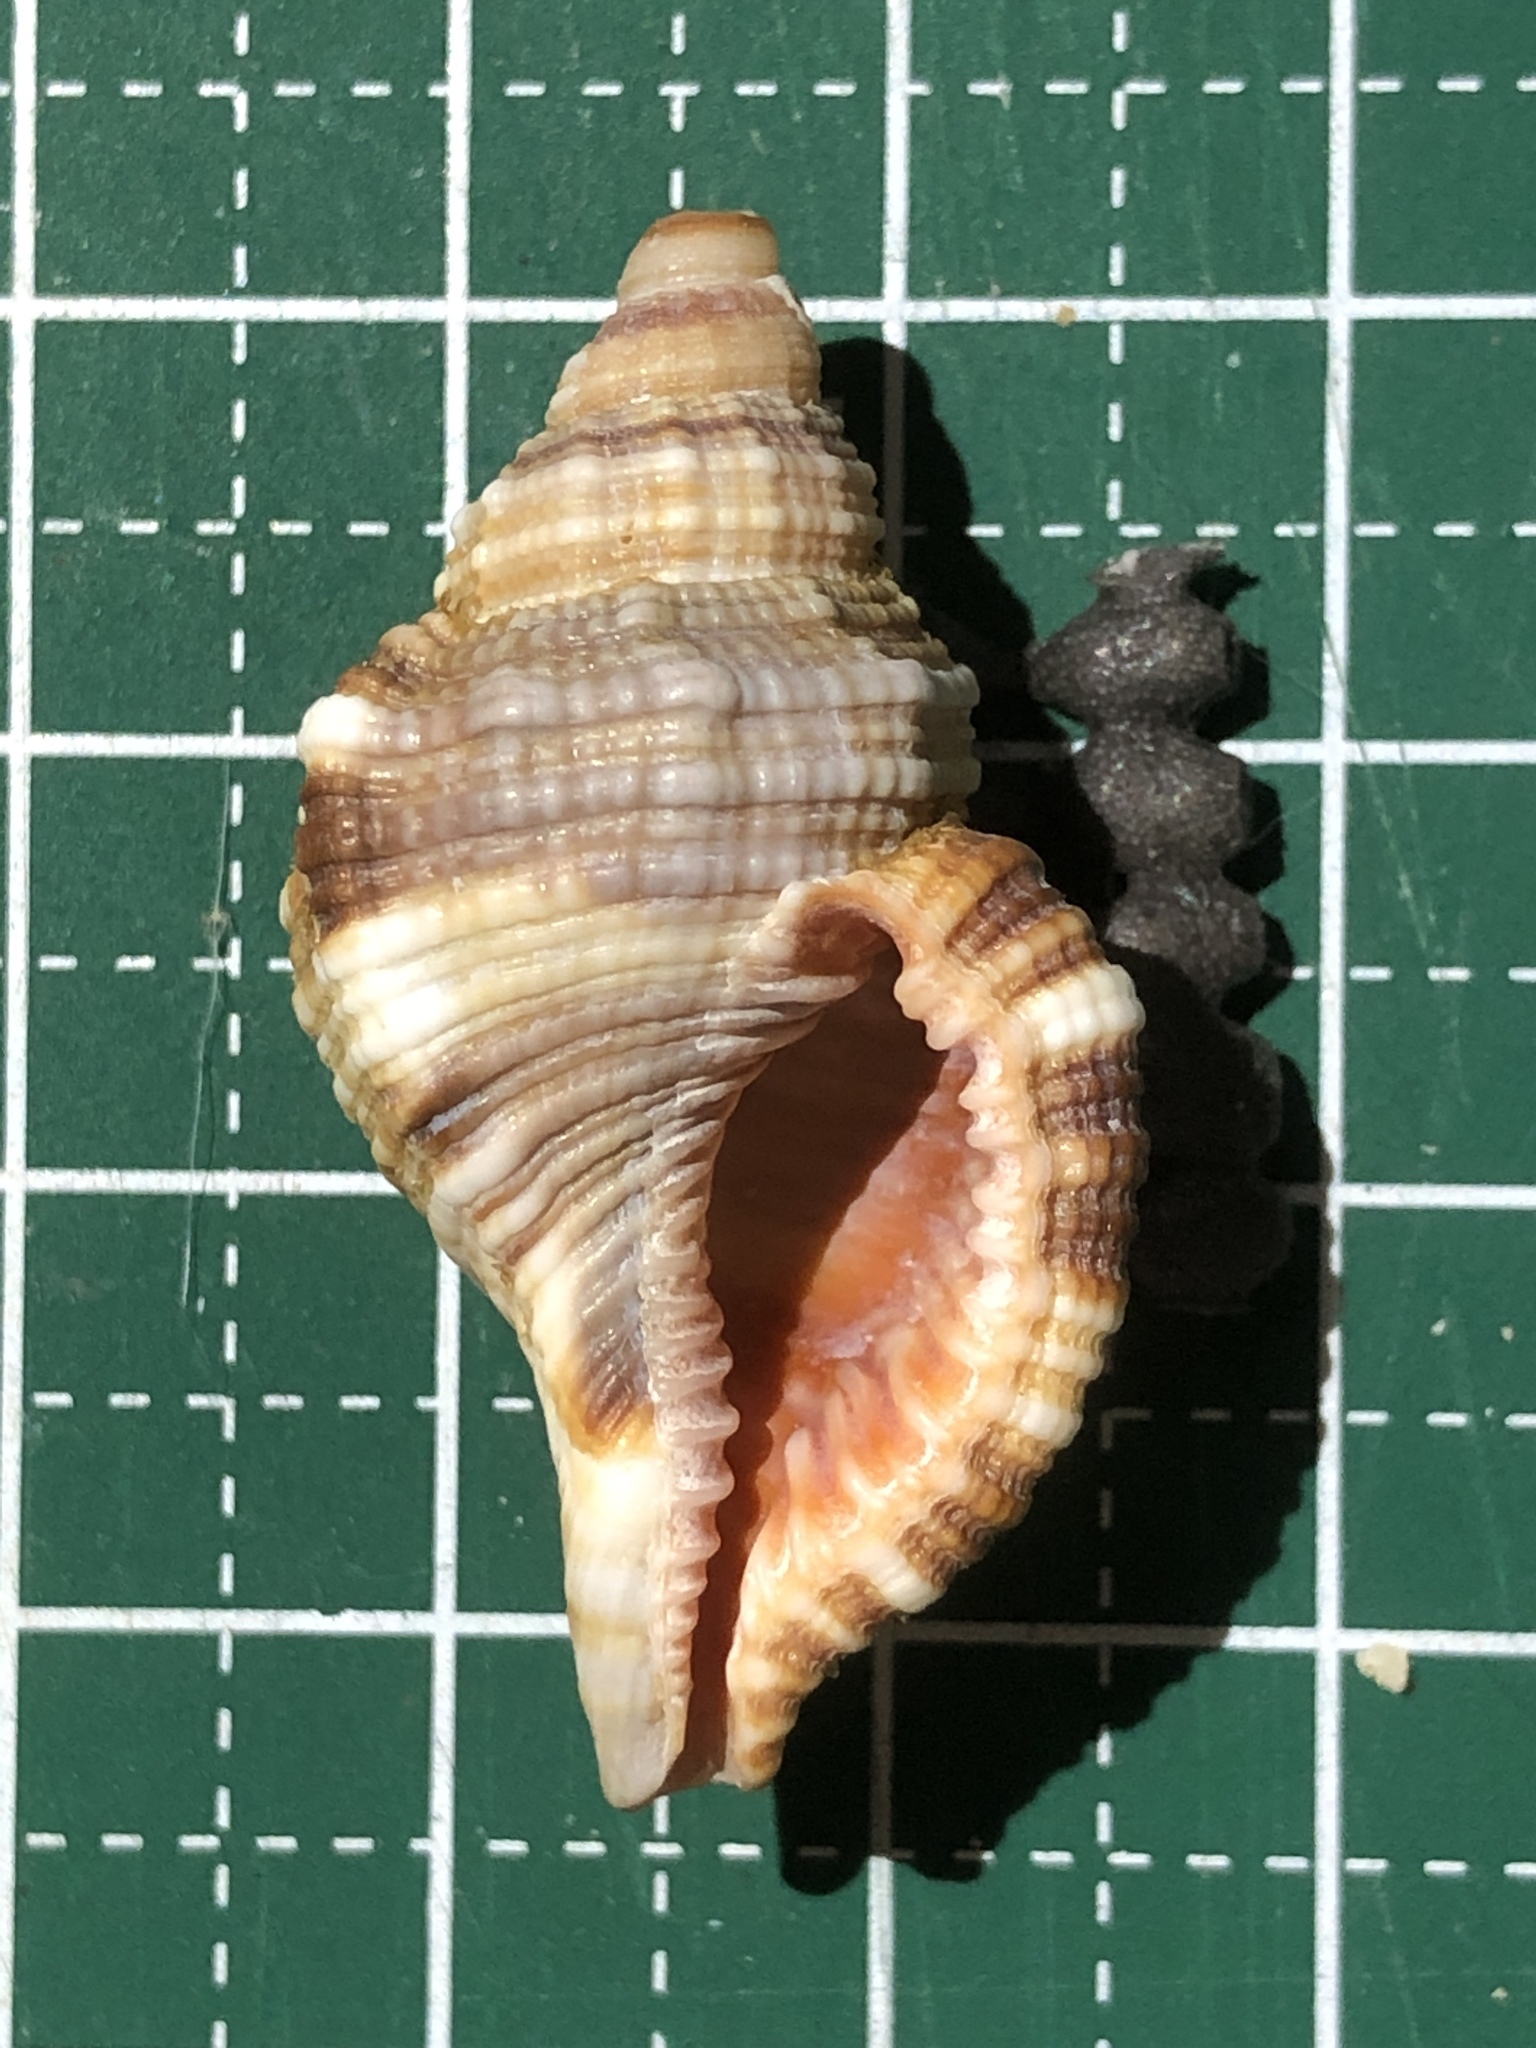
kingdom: Animalia
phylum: Mollusca
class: Gastropoda
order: Littorinimorpha
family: Cymatiidae
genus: Monoplex
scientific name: Monoplex pilearis
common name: Hairy triton
